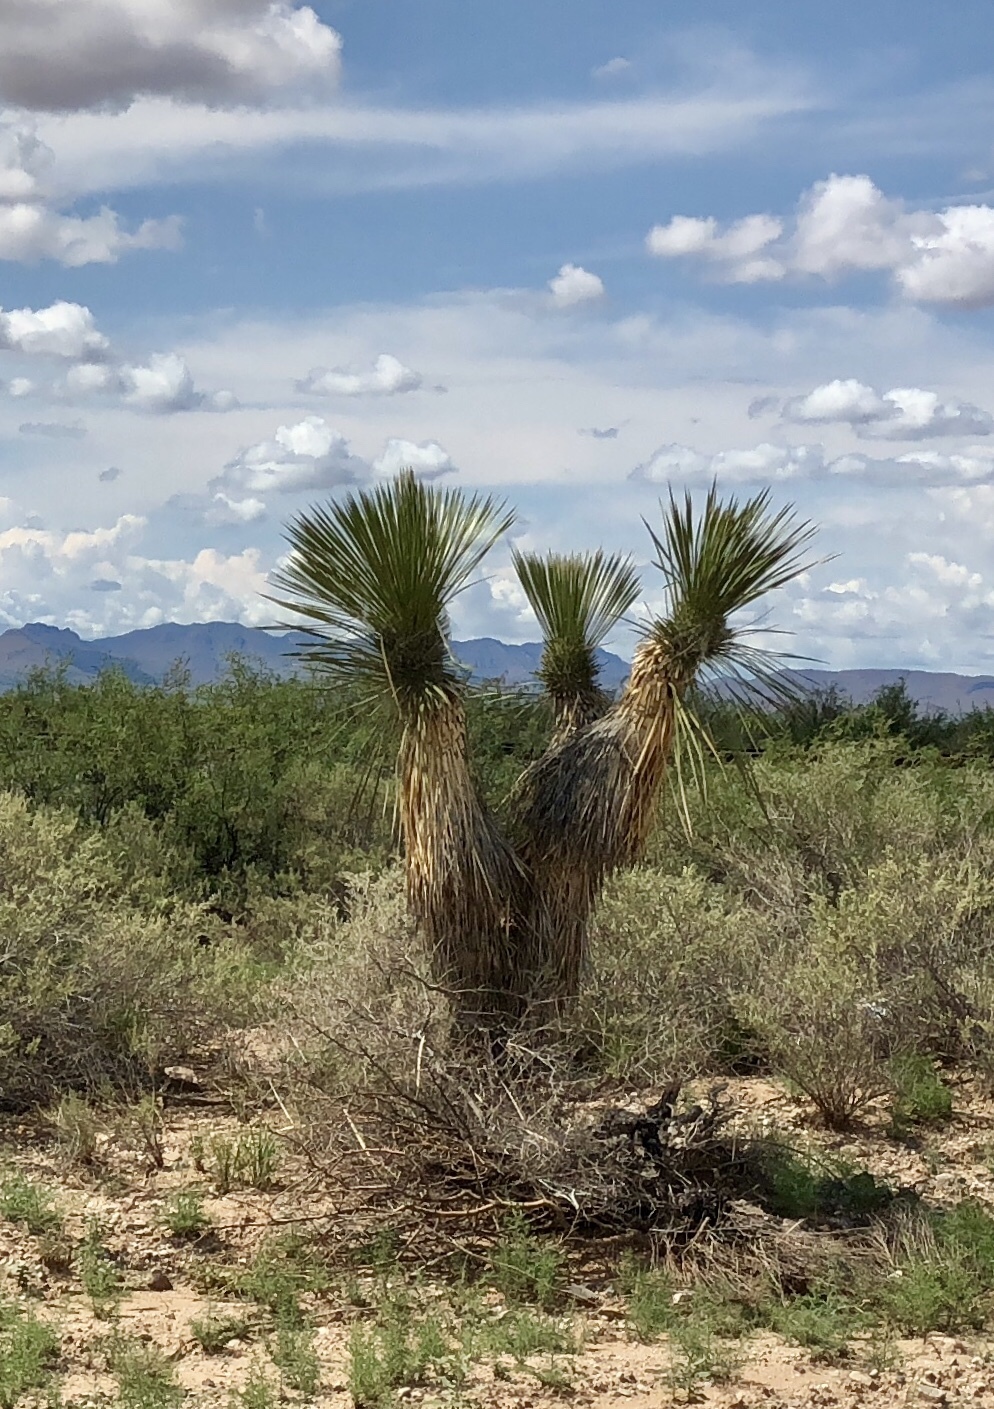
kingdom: Plantae
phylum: Tracheophyta
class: Liliopsida
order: Asparagales
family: Asparagaceae
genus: Yucca
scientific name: Yucca elata
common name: Palmella
